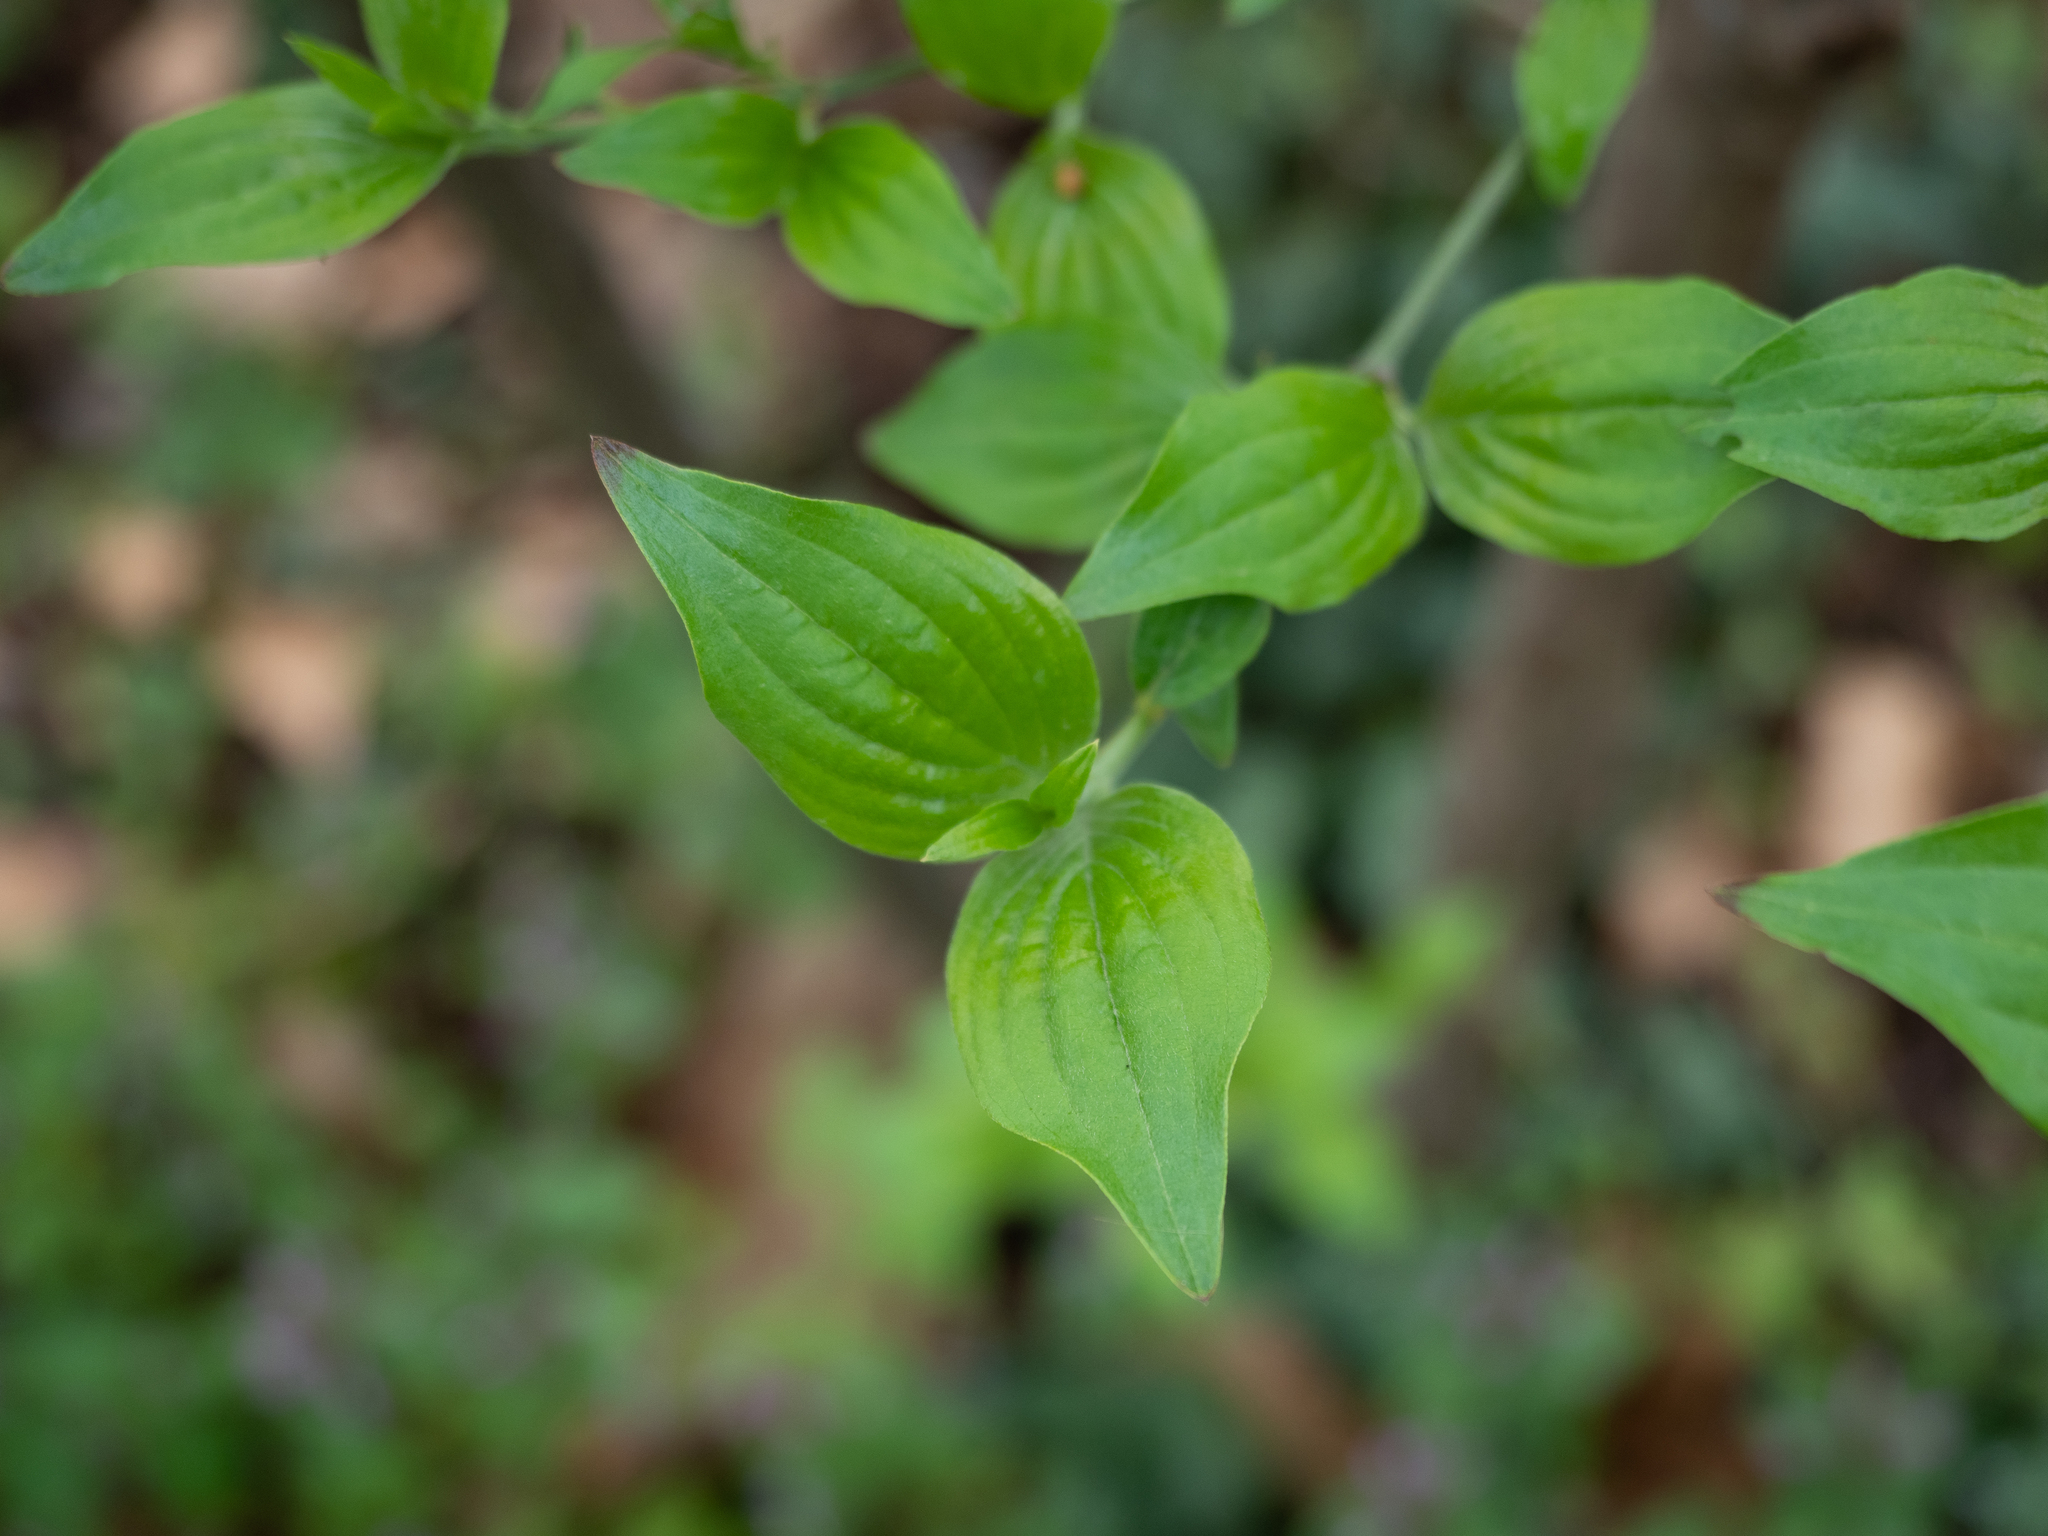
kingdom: Plantae
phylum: Tracheophyta
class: Magnoliopsida
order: Cornales
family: Cornaceae
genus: Cornus
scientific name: Cornus mas
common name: Cornelian-cherry
